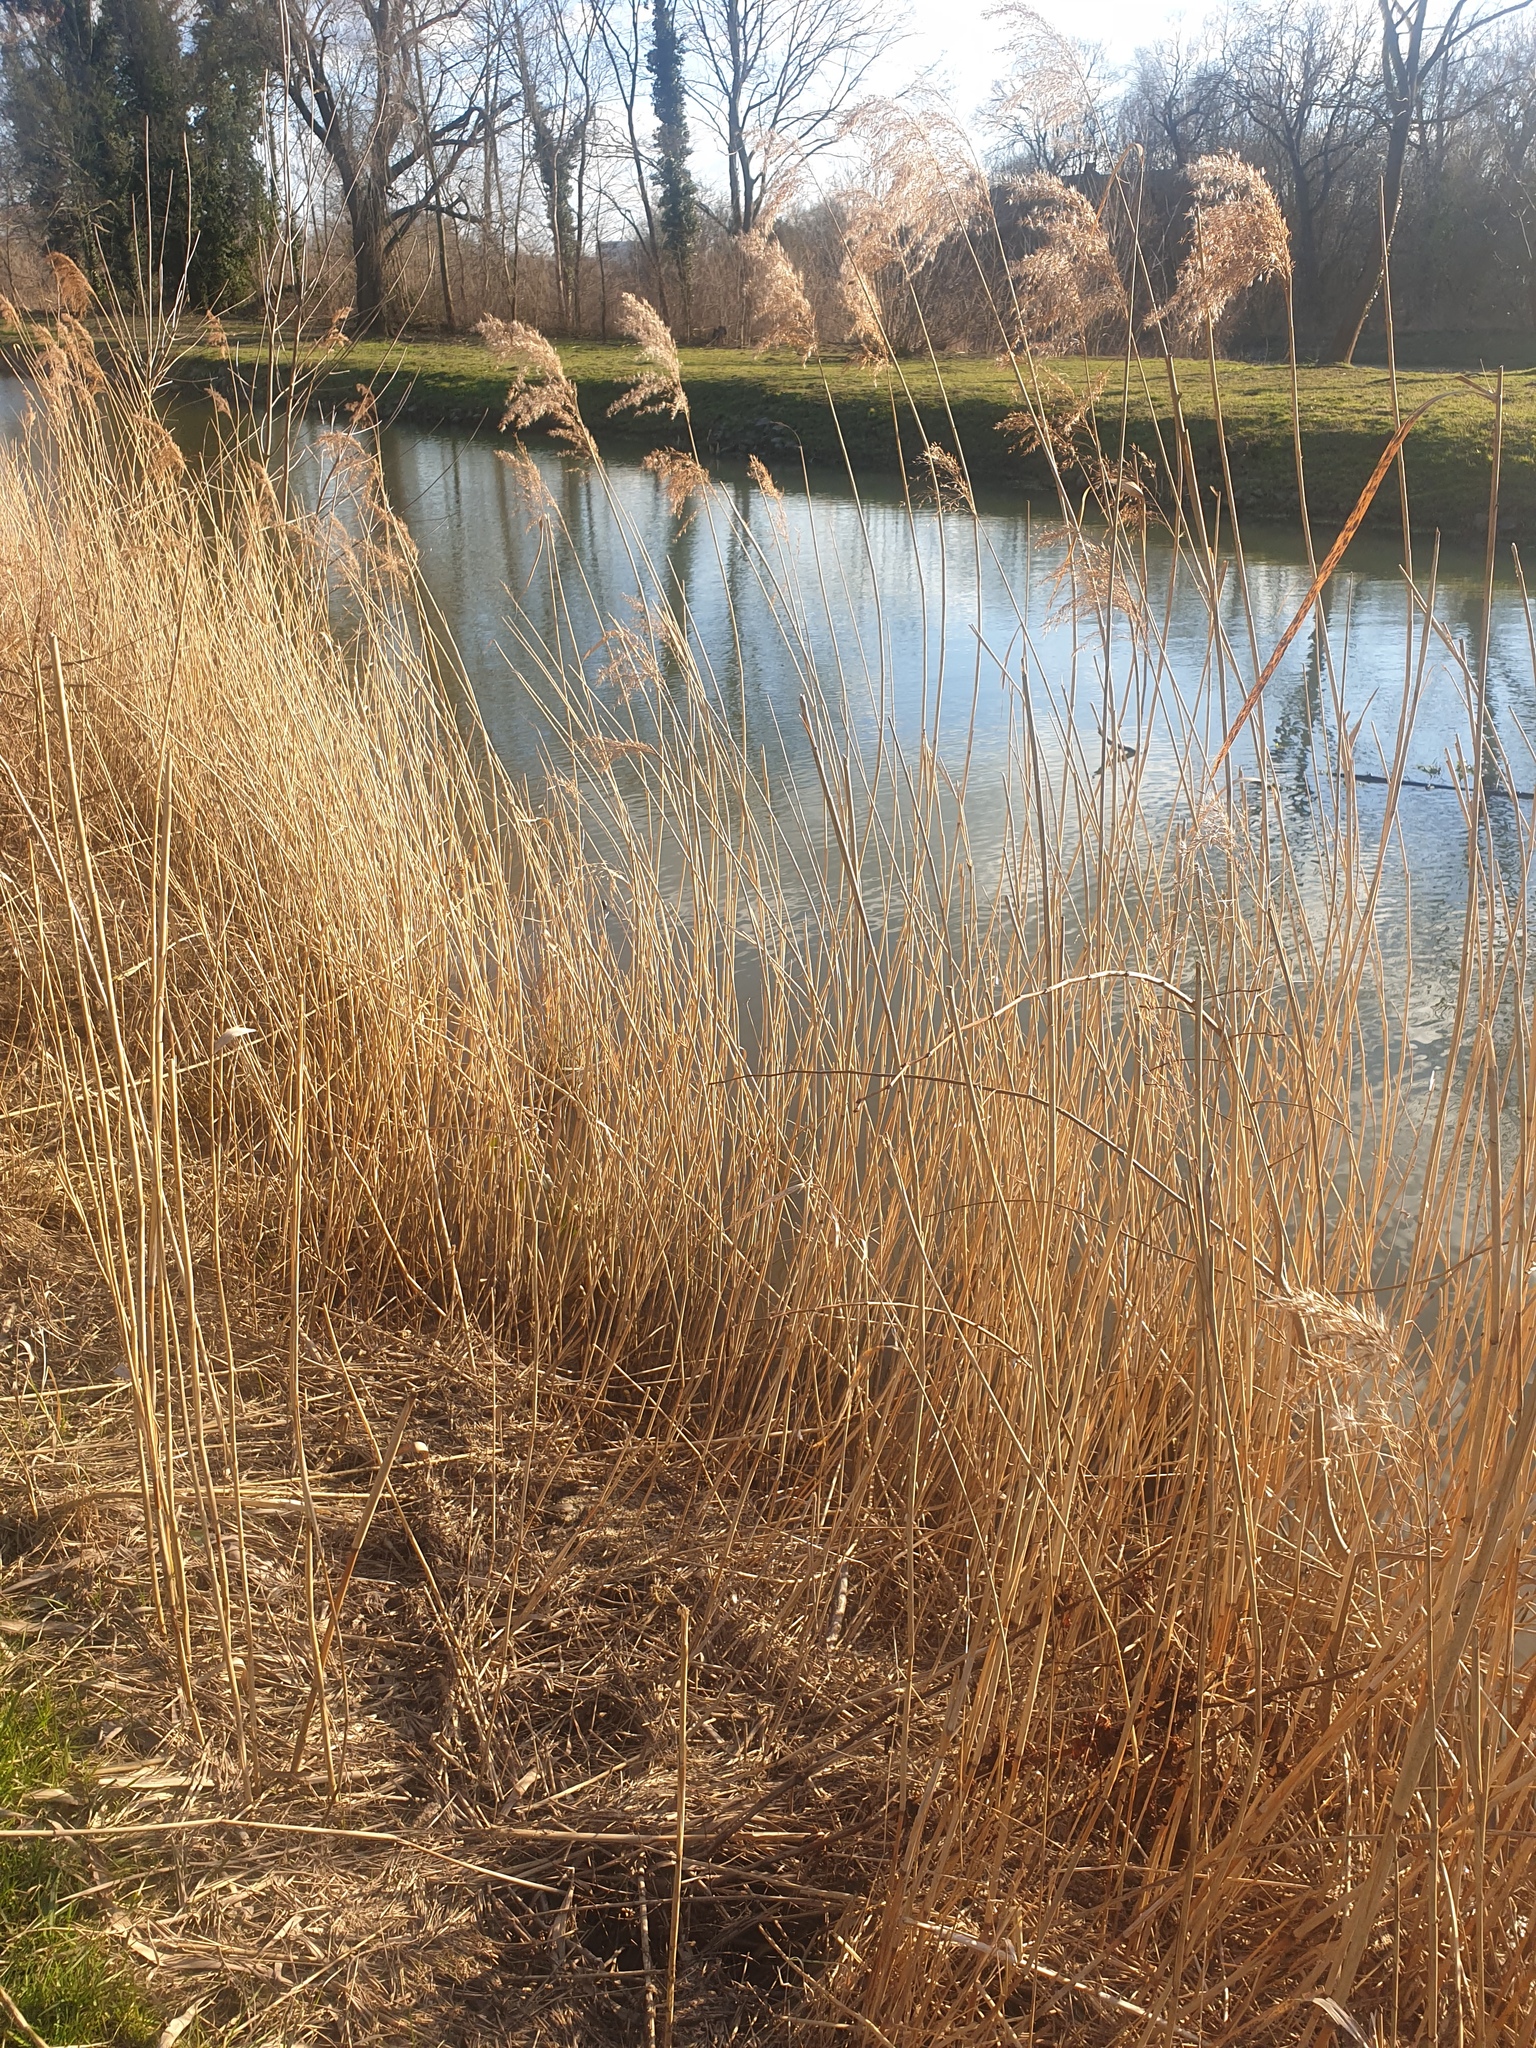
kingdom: Plantae
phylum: Tracheophyta
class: Liliopsida
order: Poales
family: Poaceae
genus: Phragmites
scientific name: Phragmites australis
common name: Common reed
